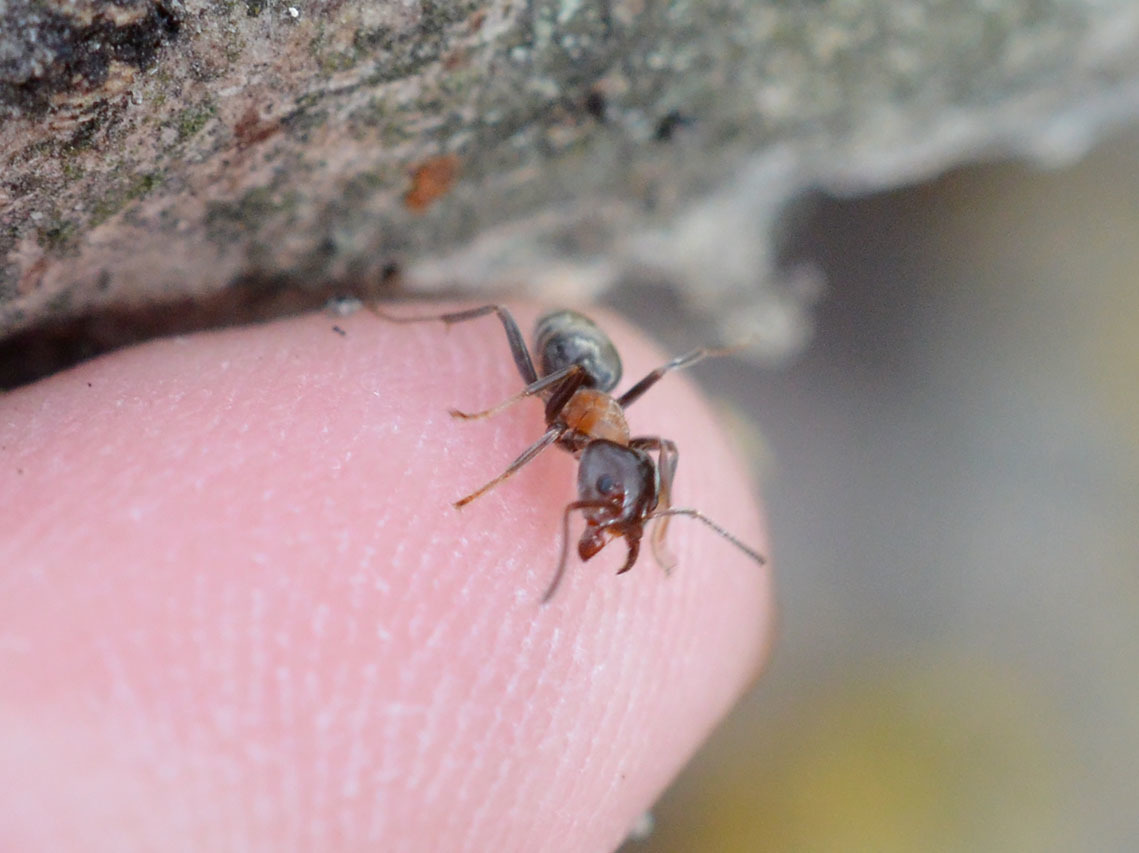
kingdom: Animalia
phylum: Arthropoda
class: Insecta
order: Hymenoptera
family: Formicidae
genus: Liometopum
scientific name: Liometopum microcephalum
